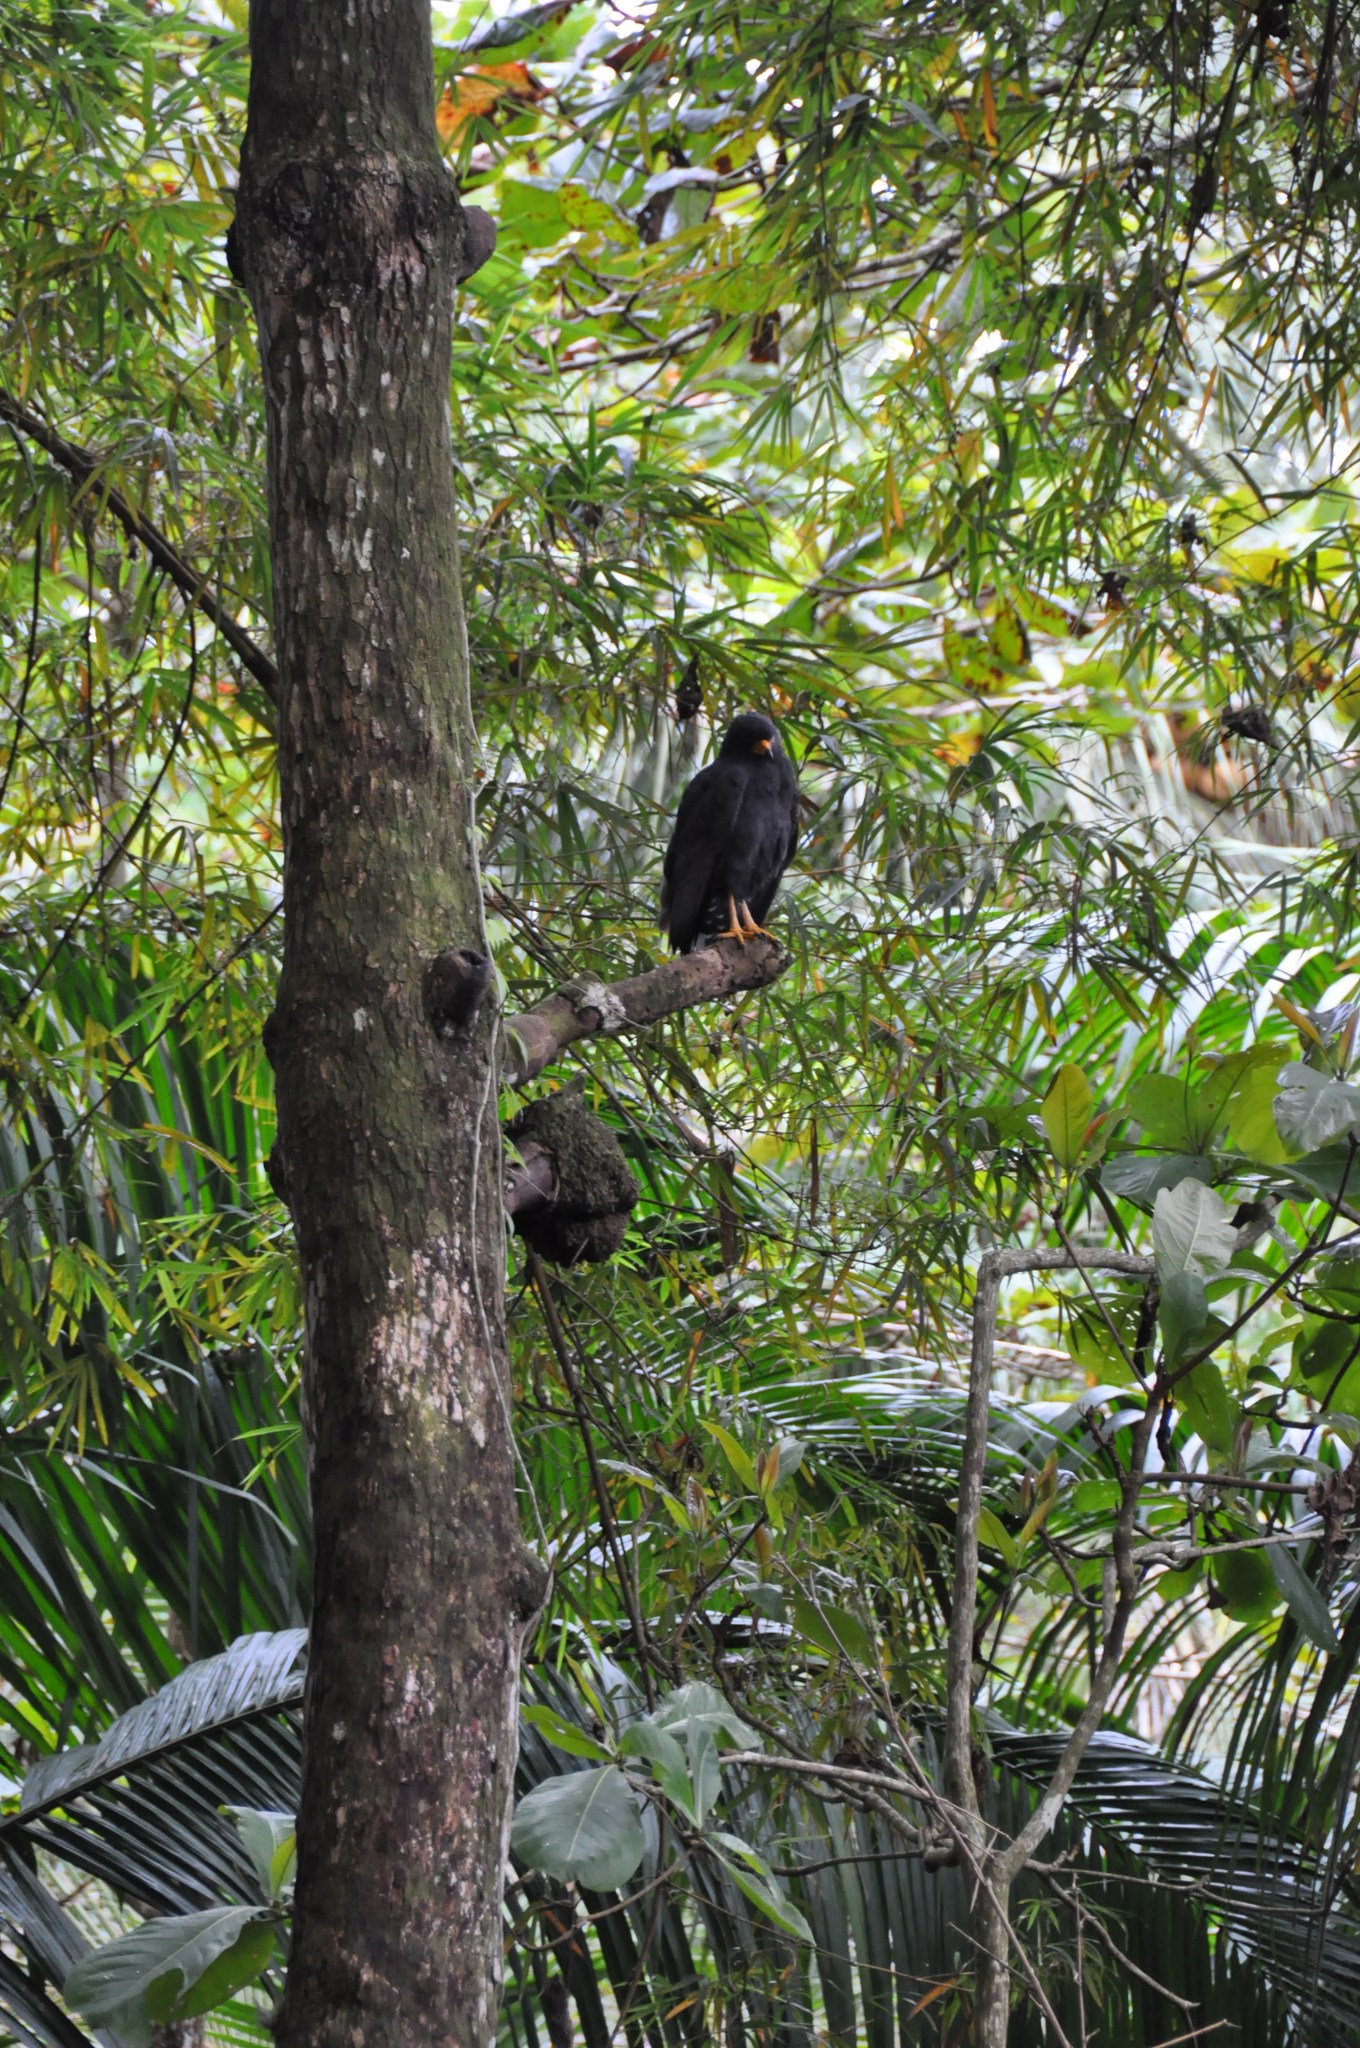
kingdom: Animalia
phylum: Chordata
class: Aves
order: Accipitriformes
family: Accipitridae
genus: Buteogallus
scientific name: Buteogallus anthracinus
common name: Common black hawk
